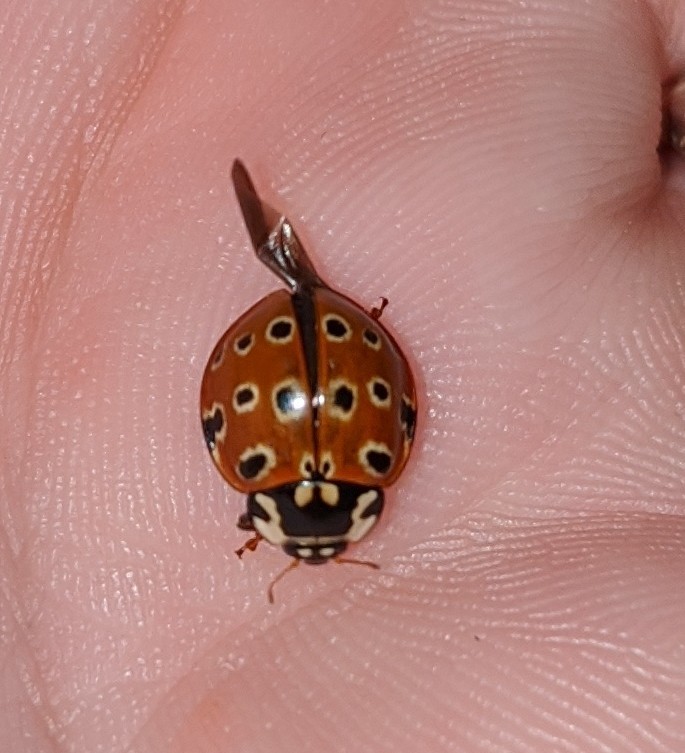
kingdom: Animalia
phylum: Arthropoda
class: Insecta
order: Coleoptera
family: Coccinellidae
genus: Anatis
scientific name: Anatis mali
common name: Eye-spotted lady beetle
